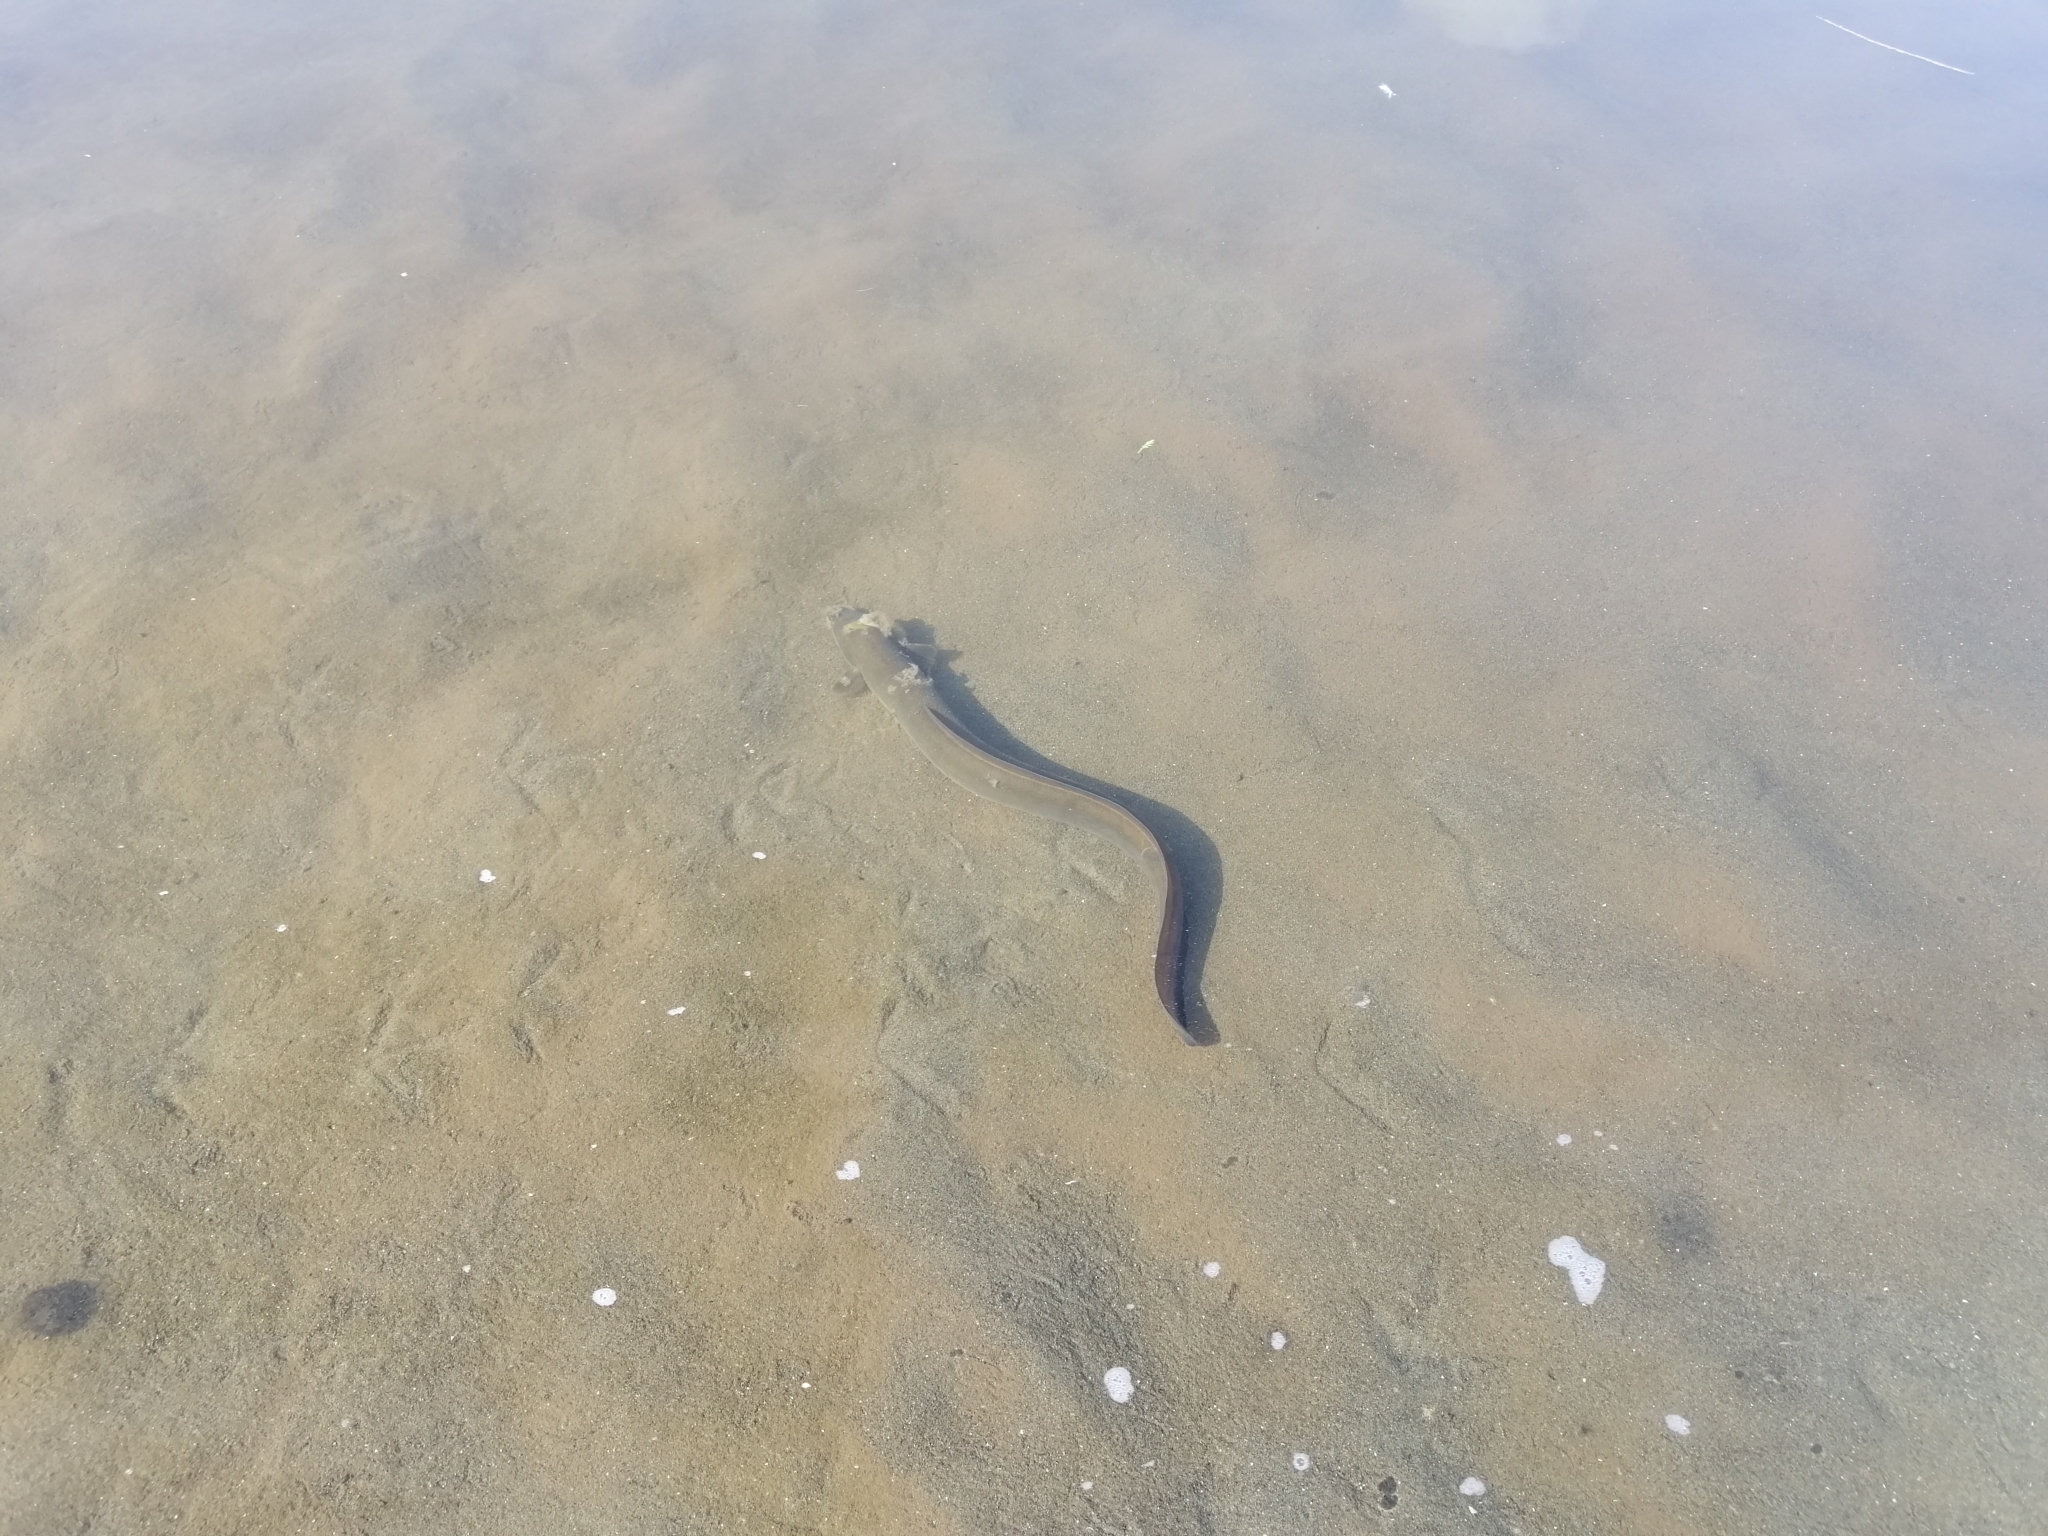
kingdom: Animalia
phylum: Chordata
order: Anguilliformes
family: Anguillidae
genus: Anguilla
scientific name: Anguilla dieffenbachii
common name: New zealand longfin eel
